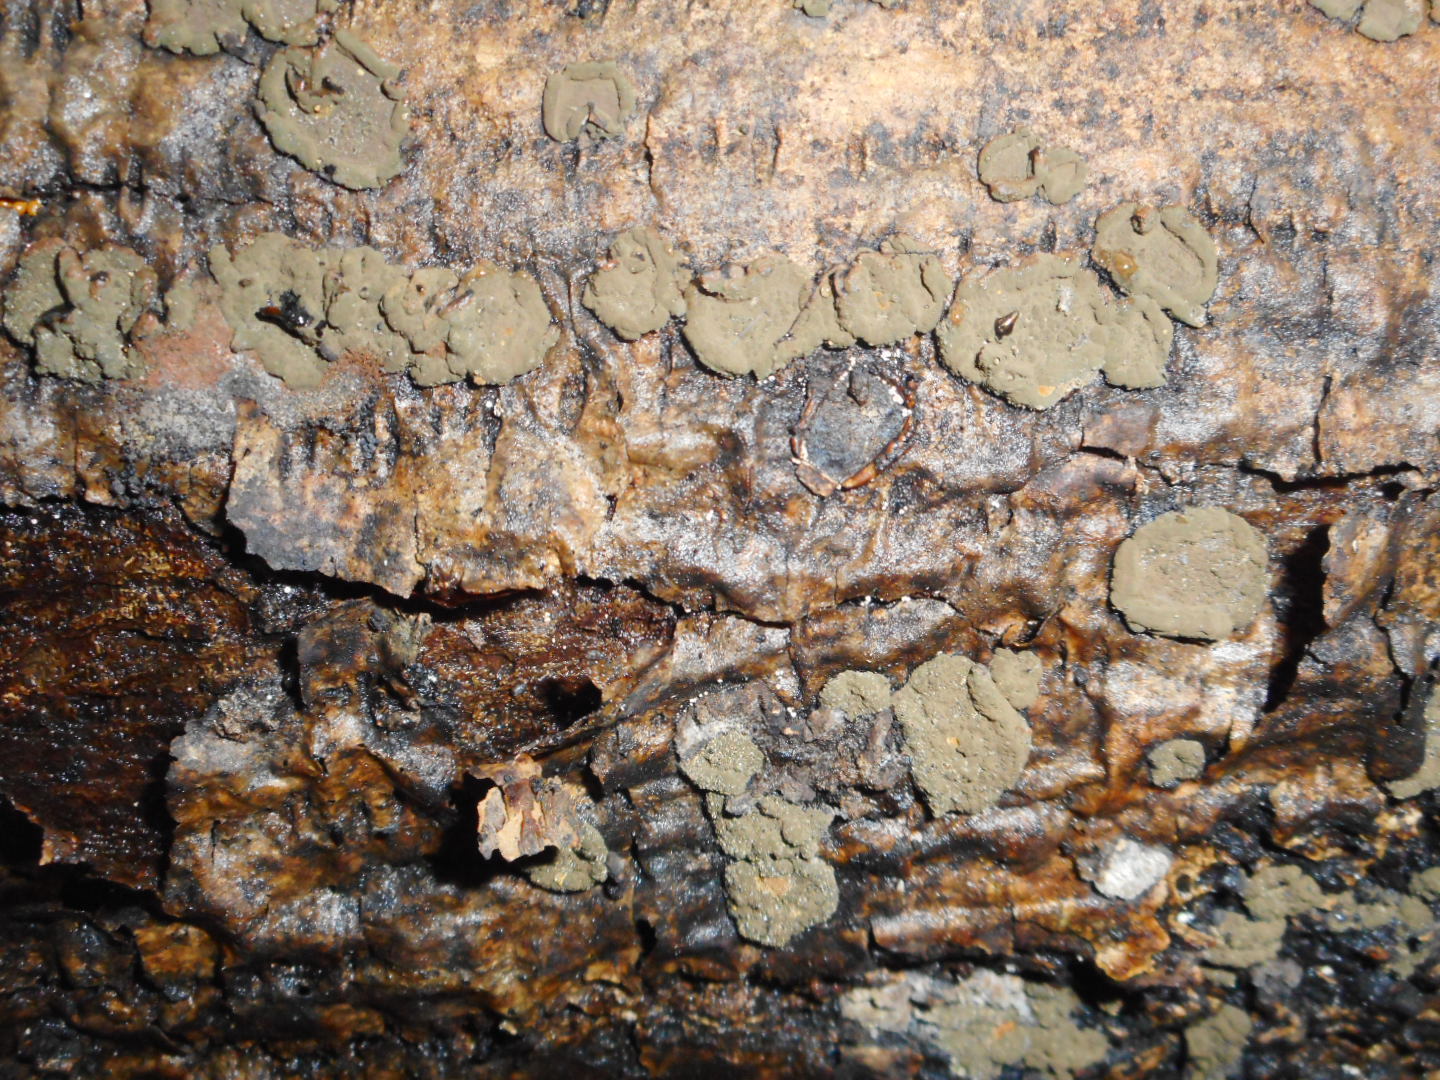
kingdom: Fungi
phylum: Ascomycota
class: Sordariomycetes
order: Xylariales
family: Hypoxylaceae
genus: Hypoxylon
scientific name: Hypoxylon cercidicola
